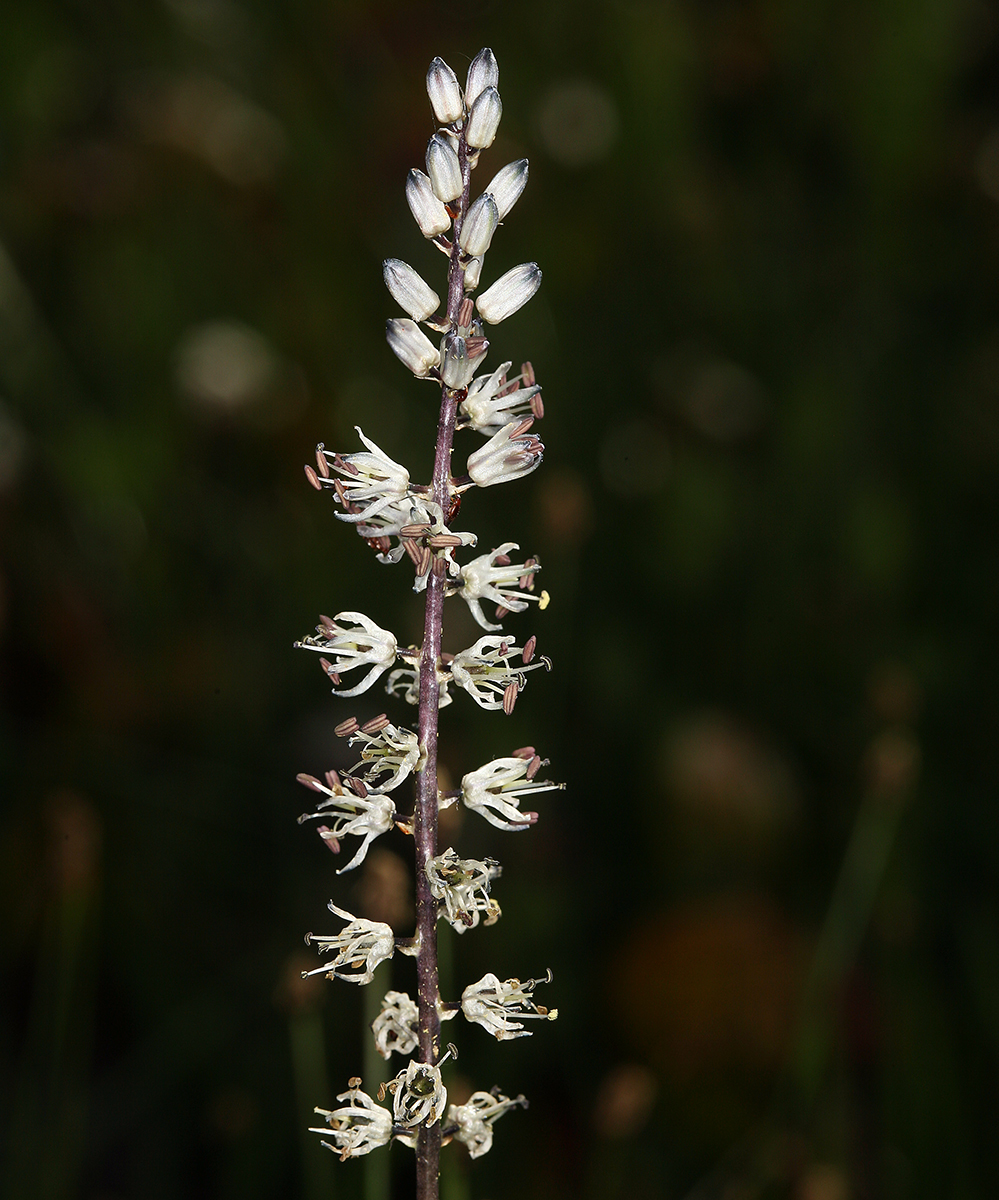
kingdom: Plantae
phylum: Tracheophyta
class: Liliopsida
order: Asparagales
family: Asparagaceae
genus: Hastingsia
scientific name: Hastingsia alba
